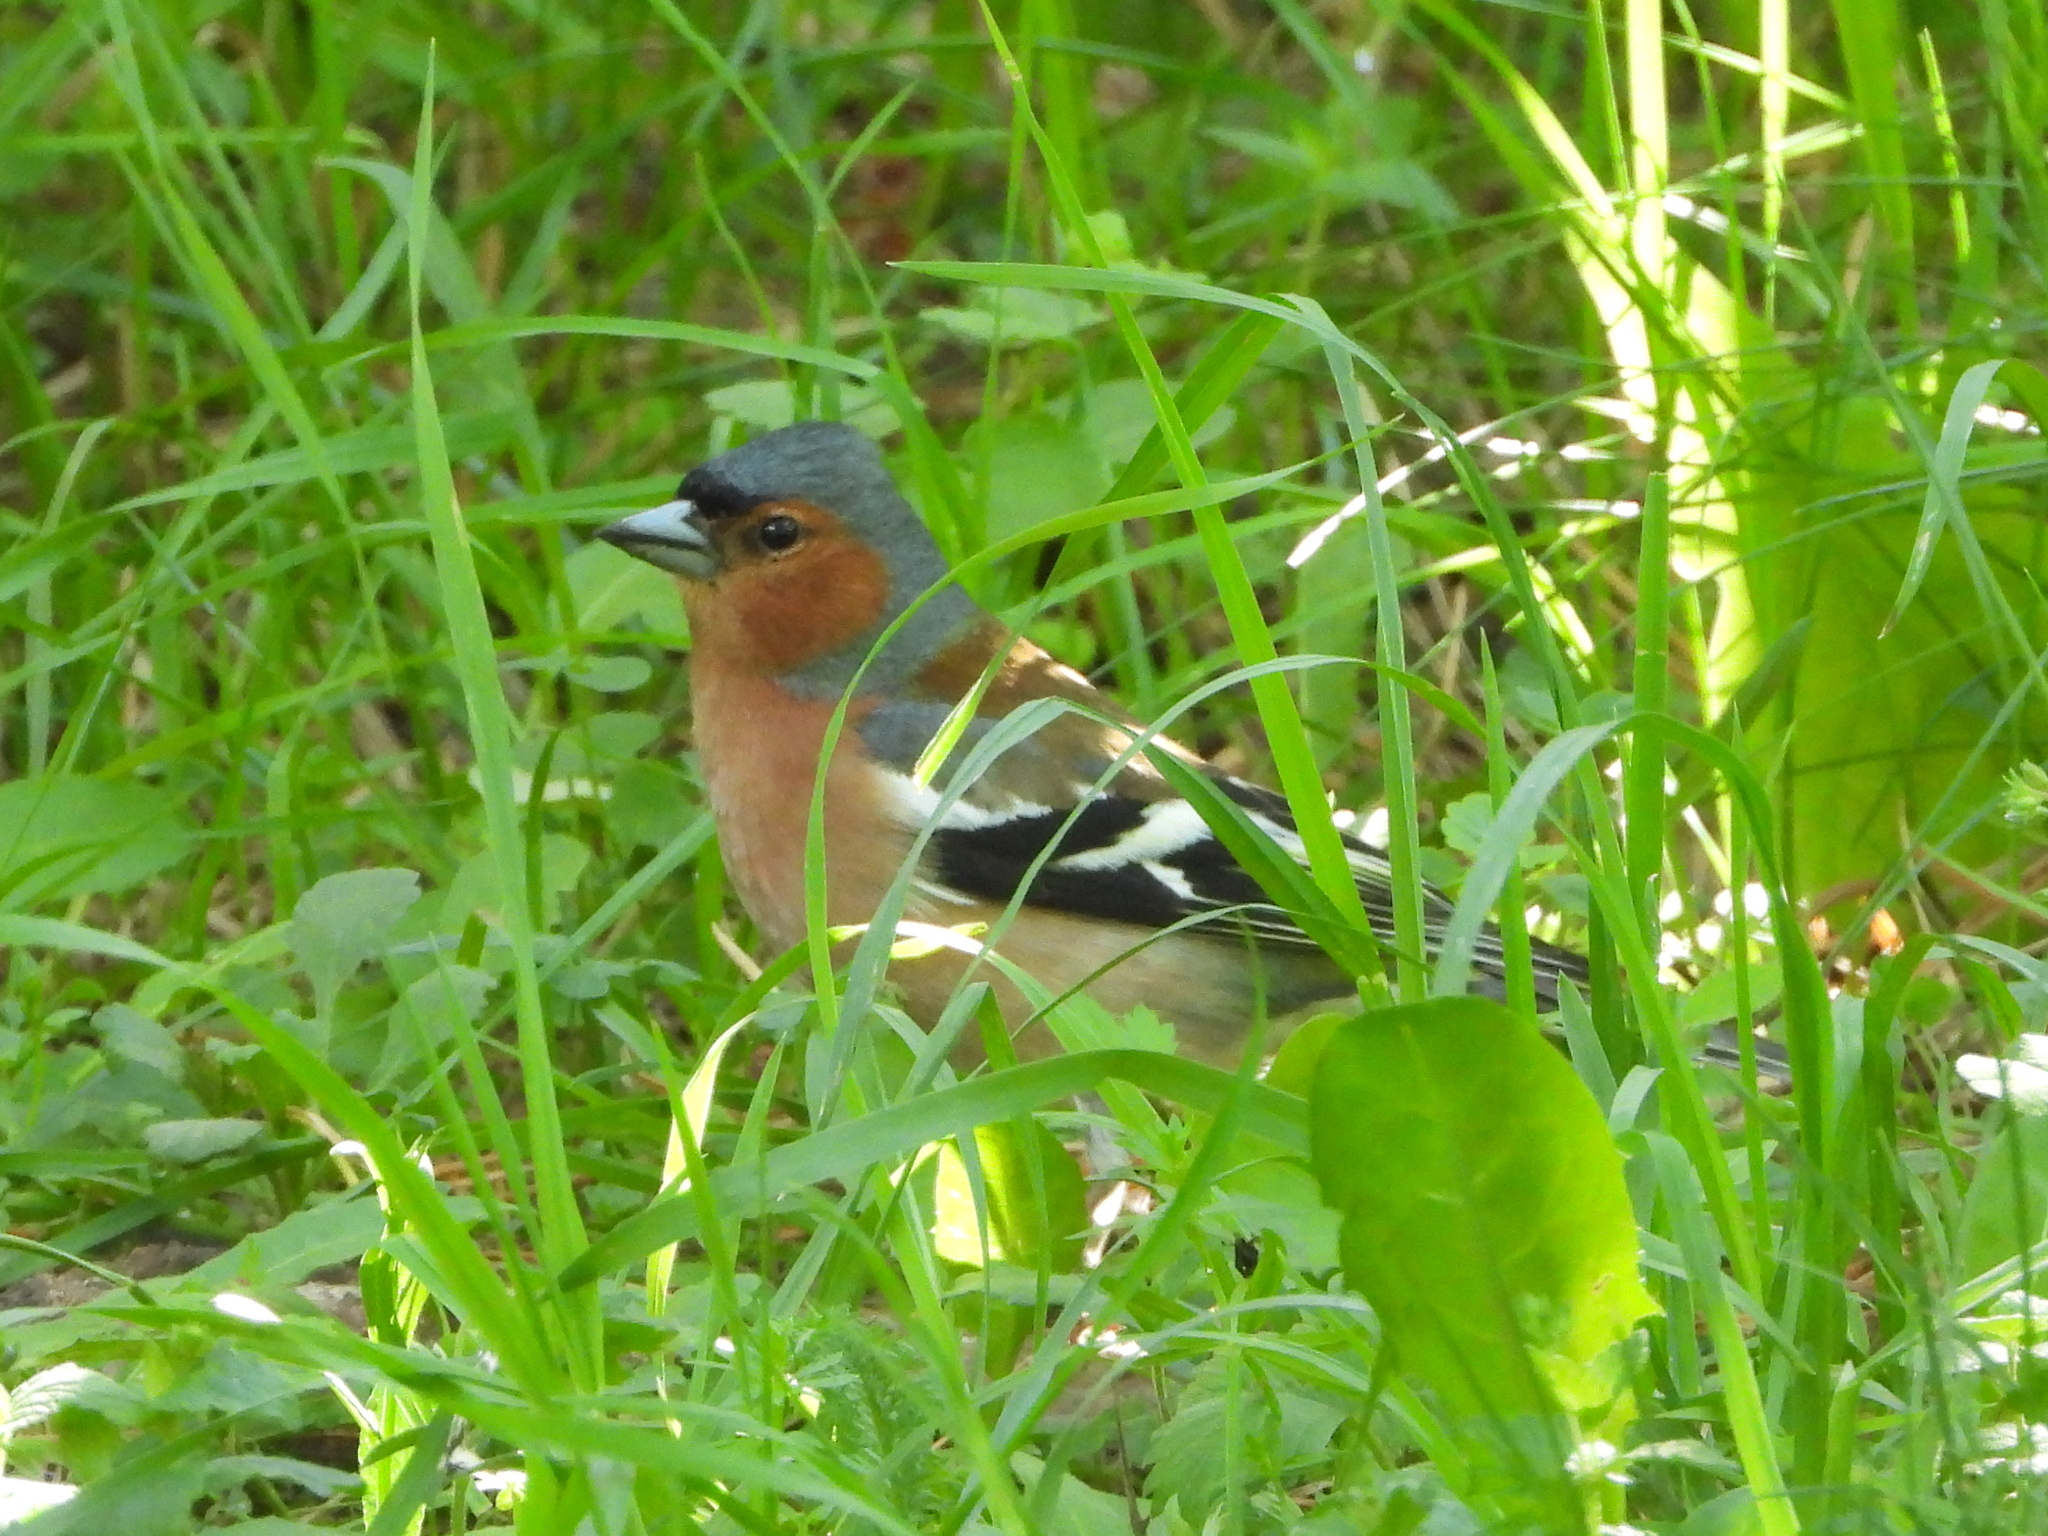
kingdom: Animalia
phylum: Chordata
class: Aves
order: Passeriformes
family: Fringillidae
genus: Fringilla
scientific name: Fringilla coelebs
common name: Common chaffinch
